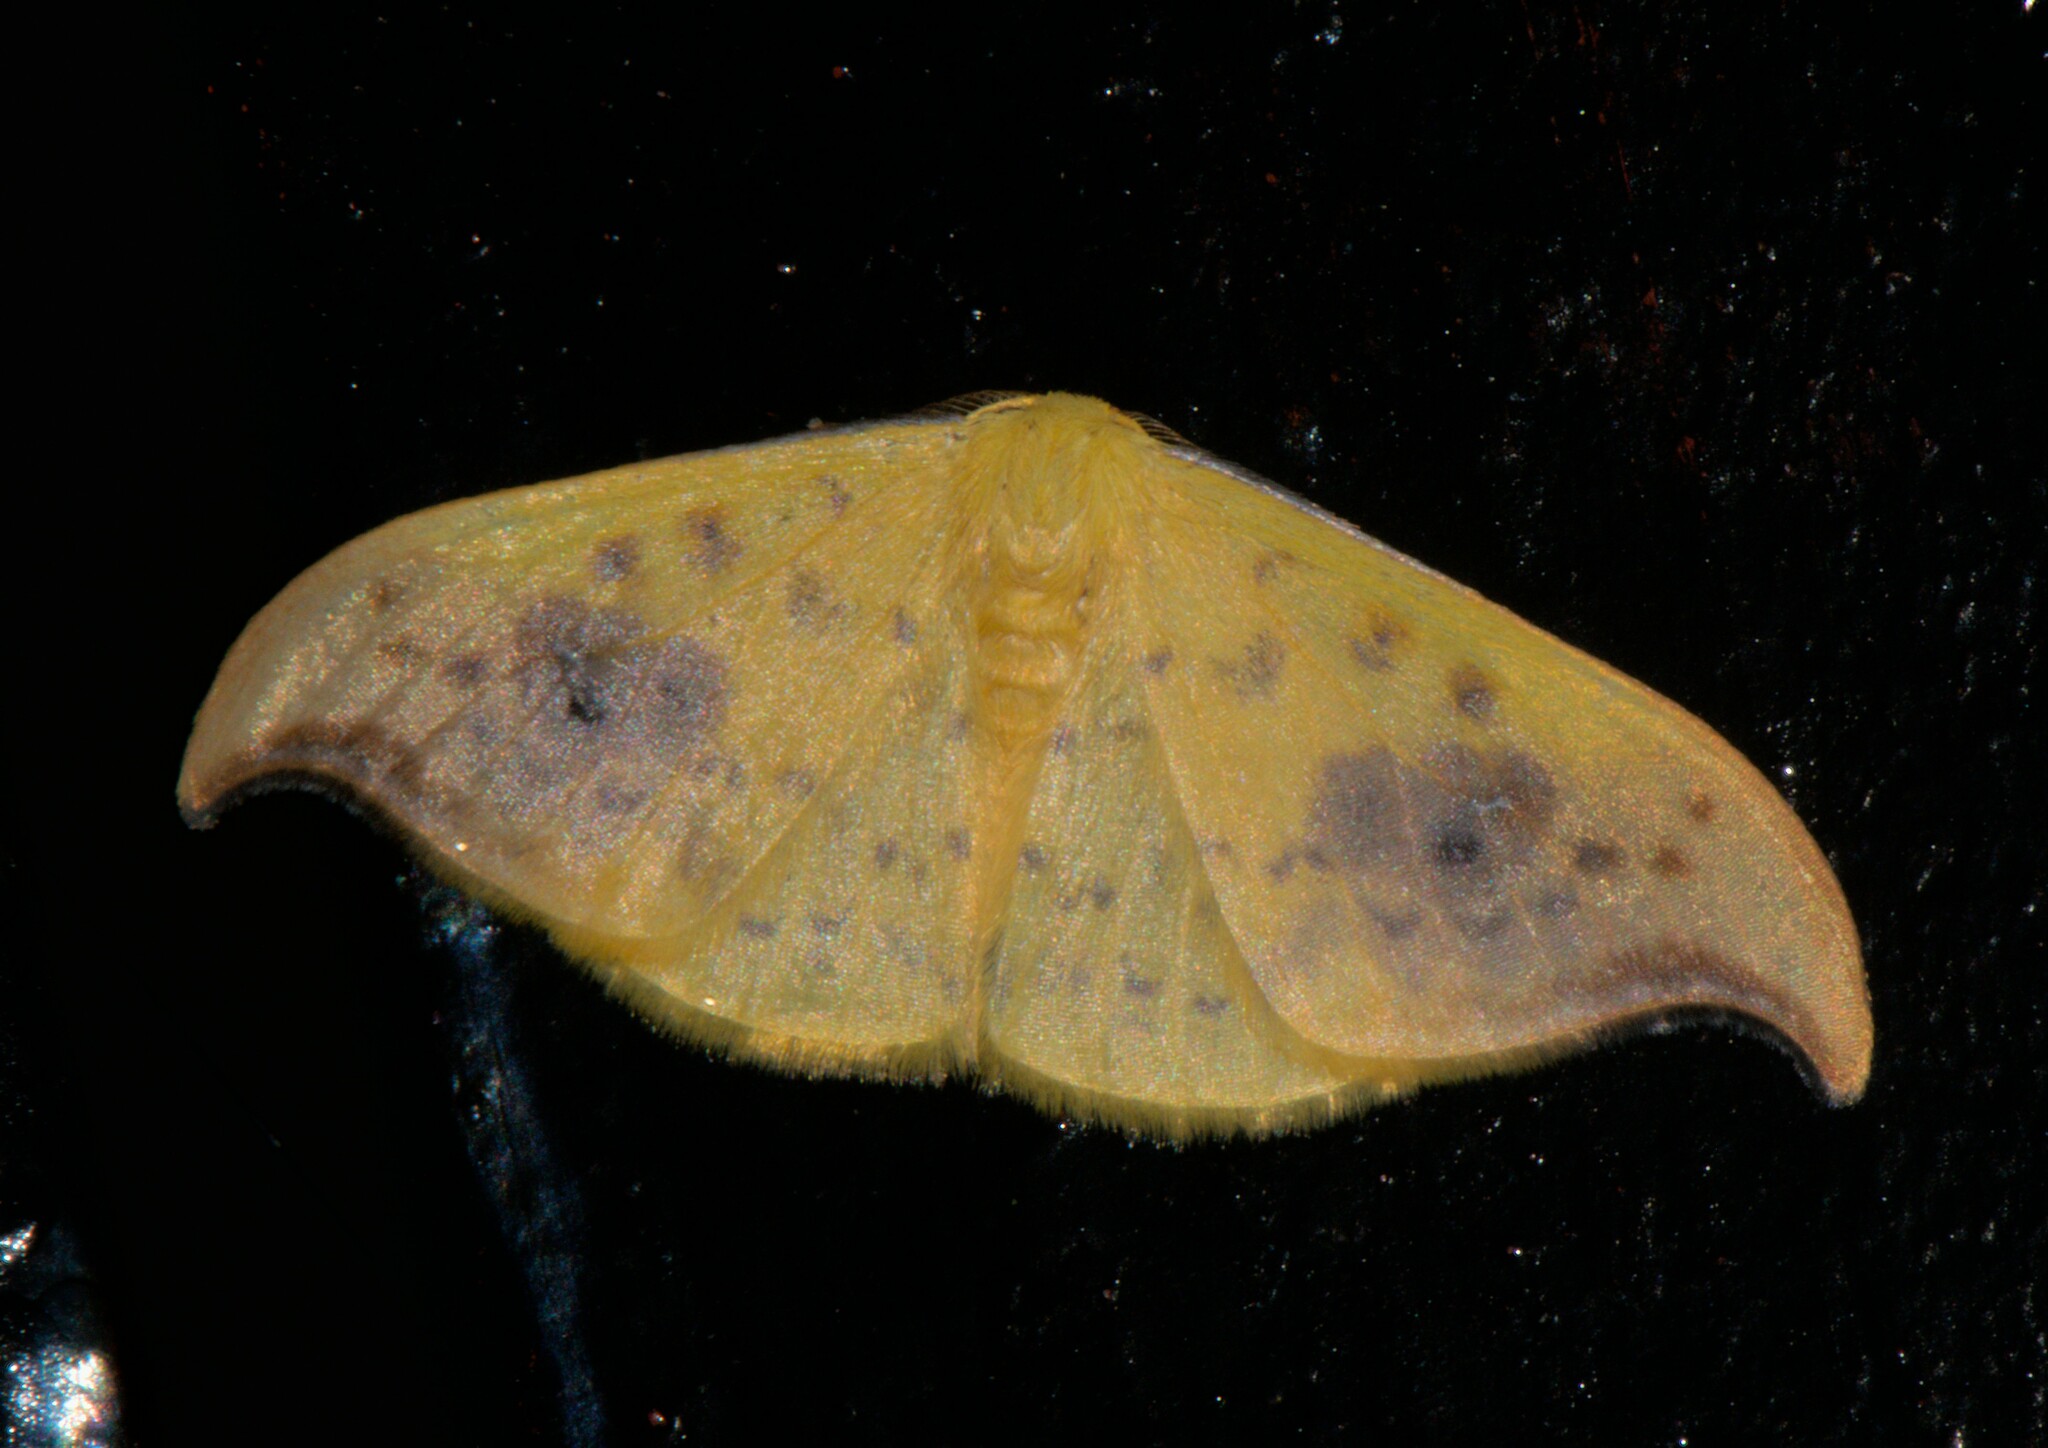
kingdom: Animalia
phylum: Arthropoda
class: Insecta
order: Lepidoptera
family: Drepanidae
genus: Tridrepana
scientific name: Tridrepana sadana
